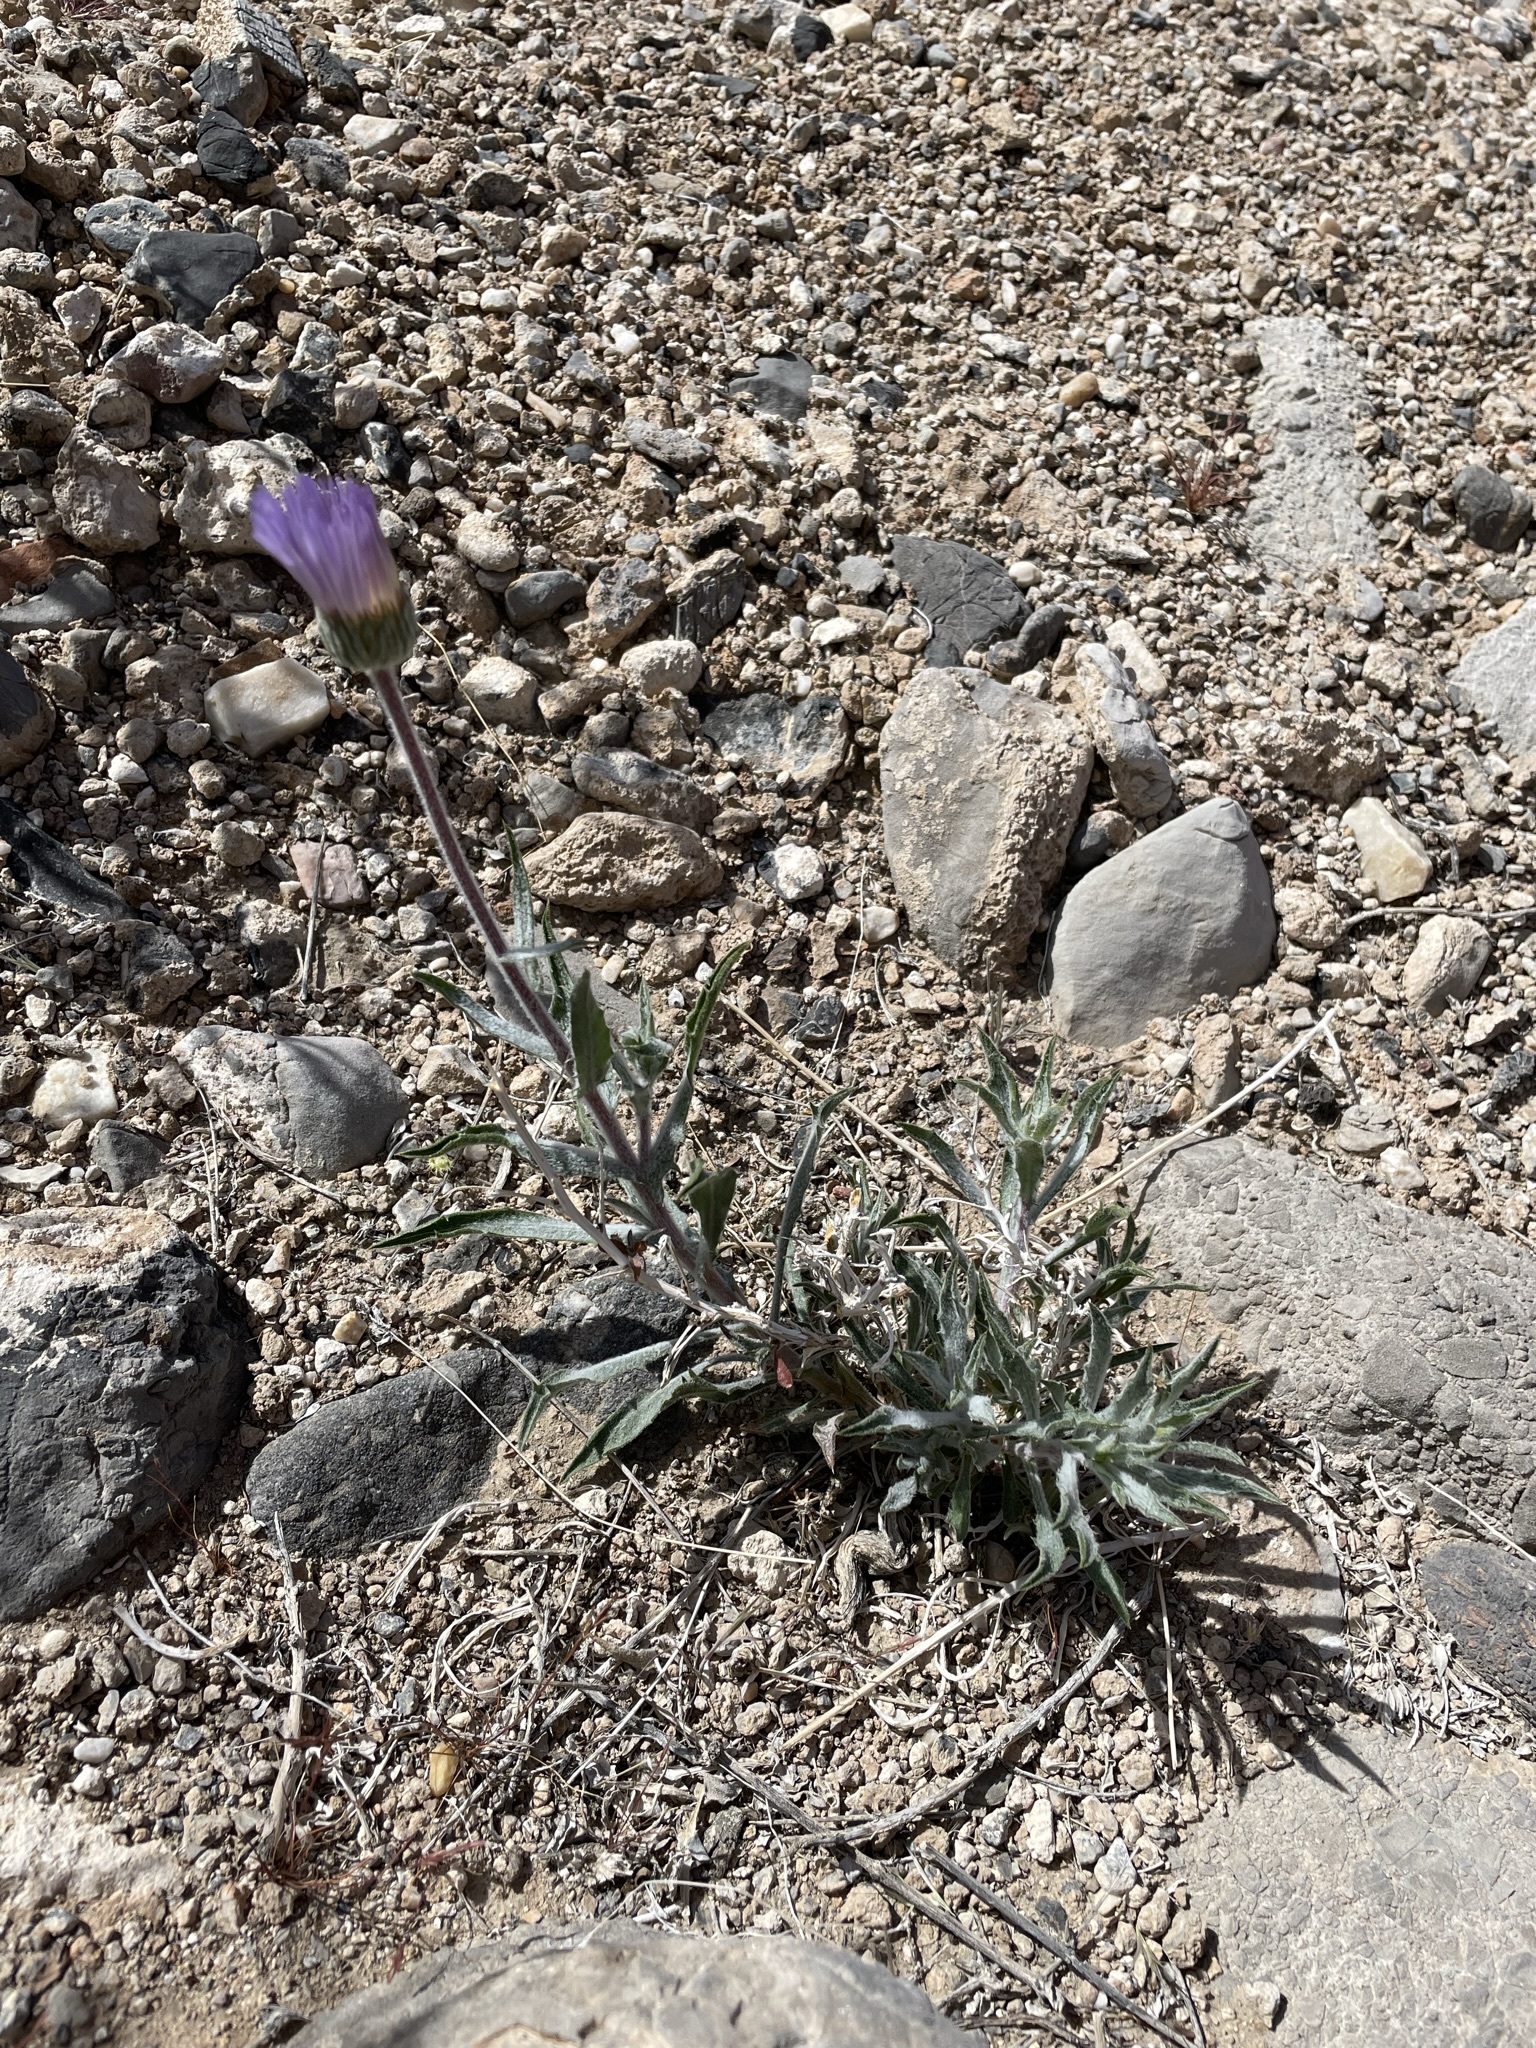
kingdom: Plantae
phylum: Tracheophyta
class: Magnoliopsida
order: Asterales
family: Asteraceae
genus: Xylorhiza
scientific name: Xylorhiza tortifolia
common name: Hurt-leaf woody-aster
